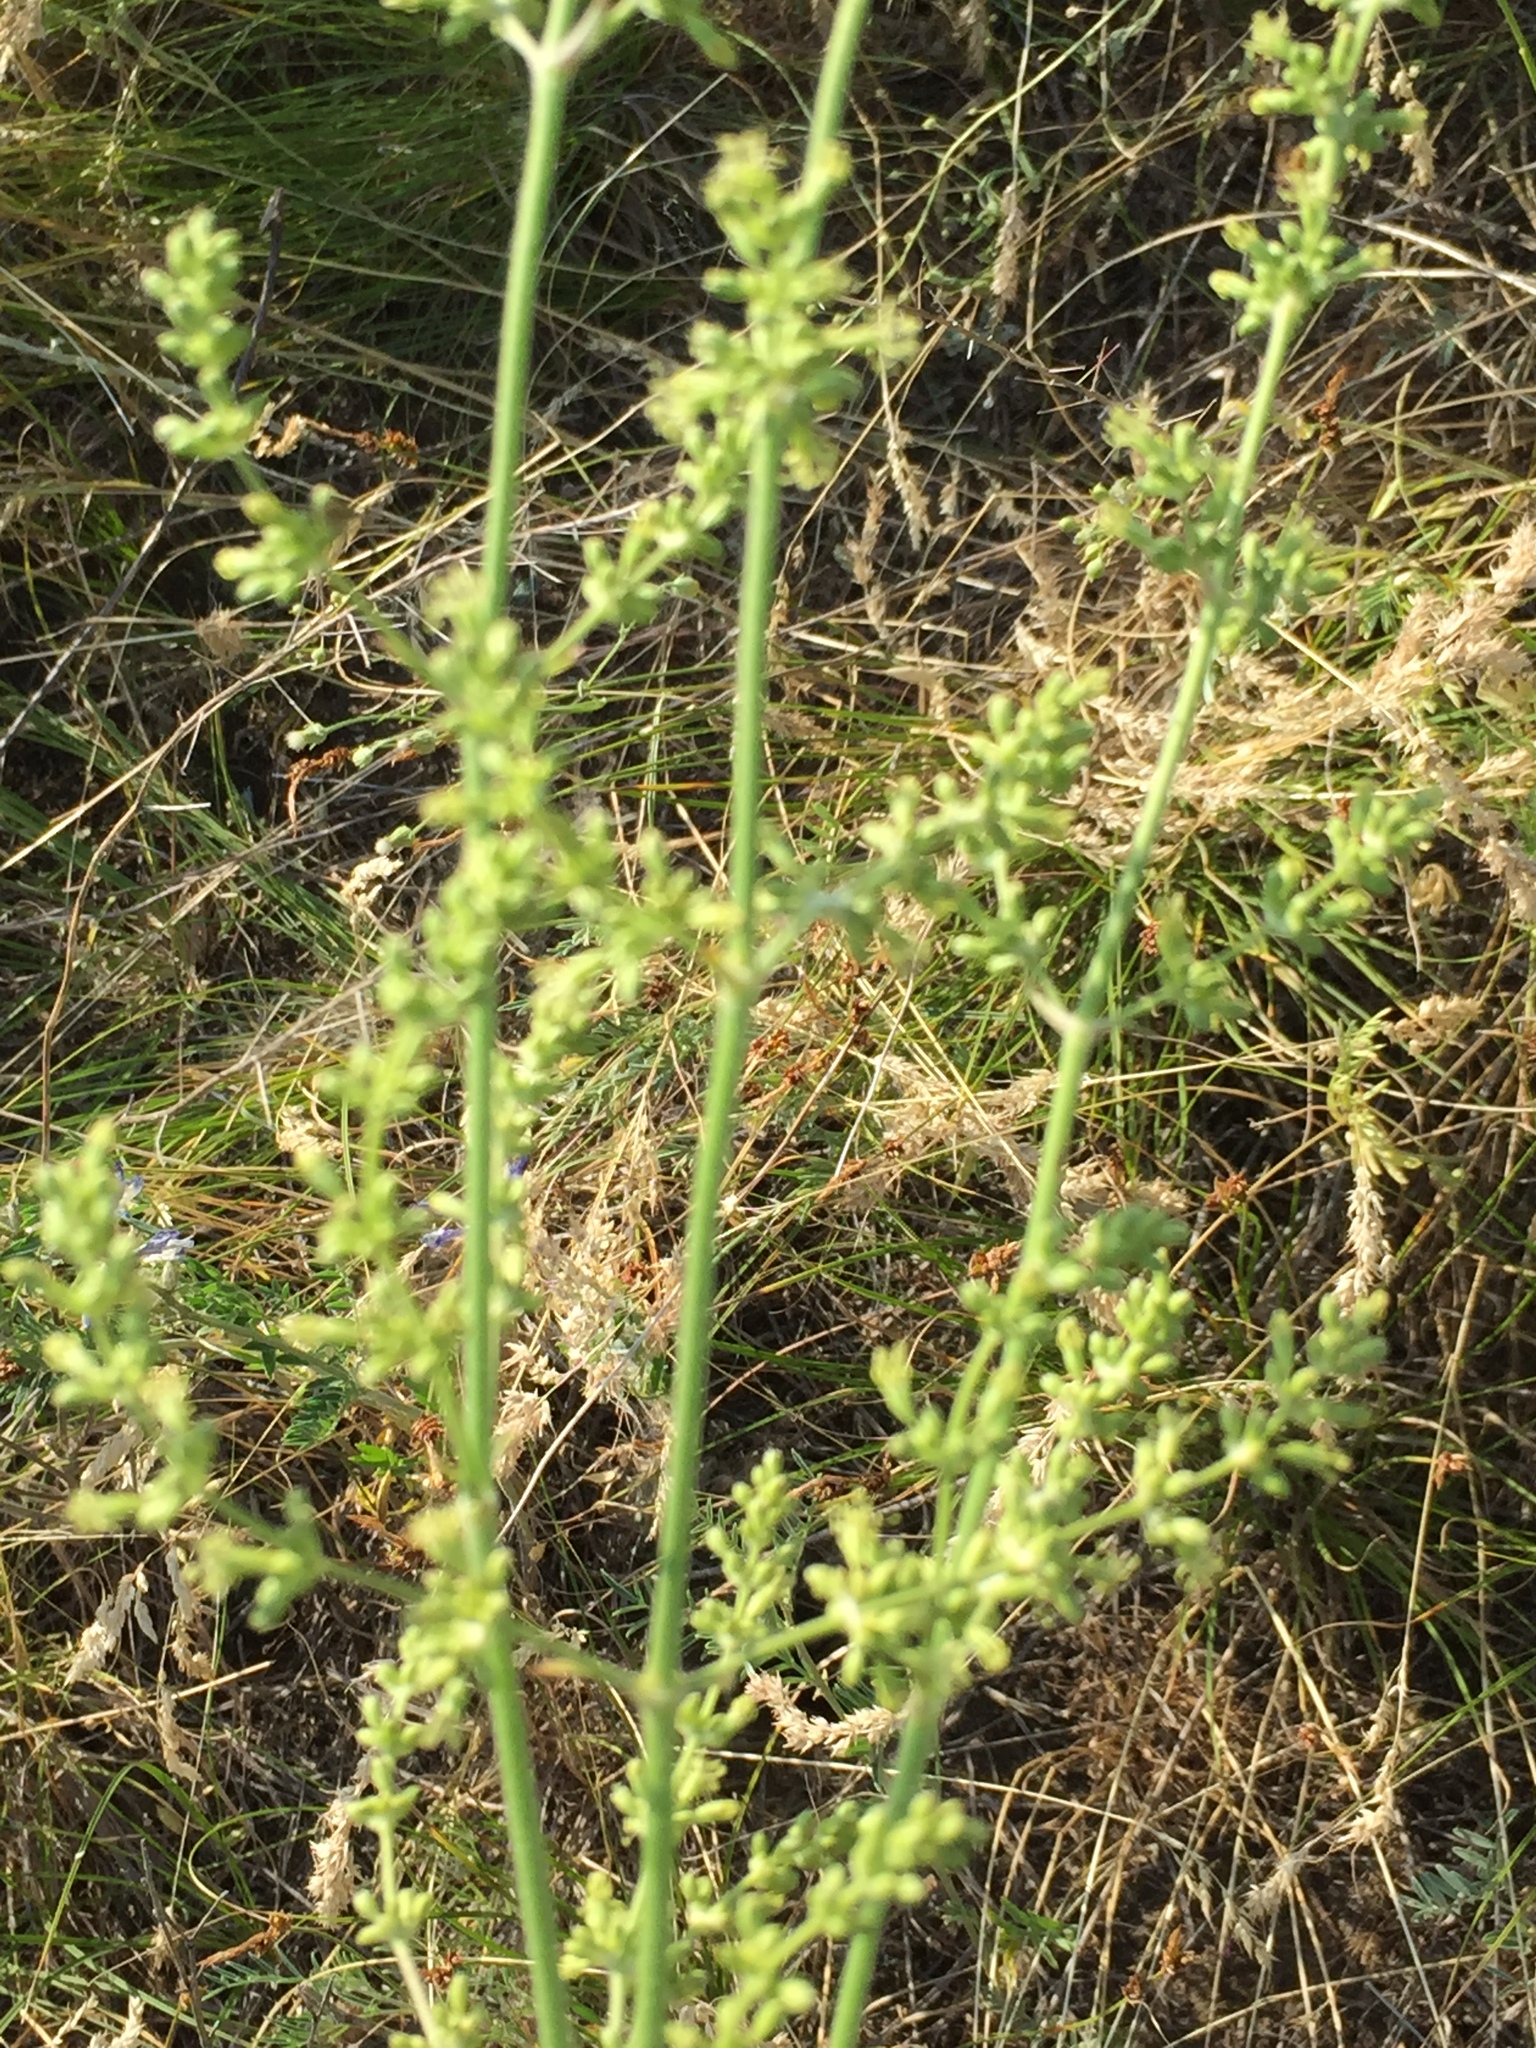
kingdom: Plantae
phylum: Tracheophyta
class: Magnoliopsida
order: Caryophyllales
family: Caryophyllaceae
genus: Silene
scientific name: Silene borysthenica
